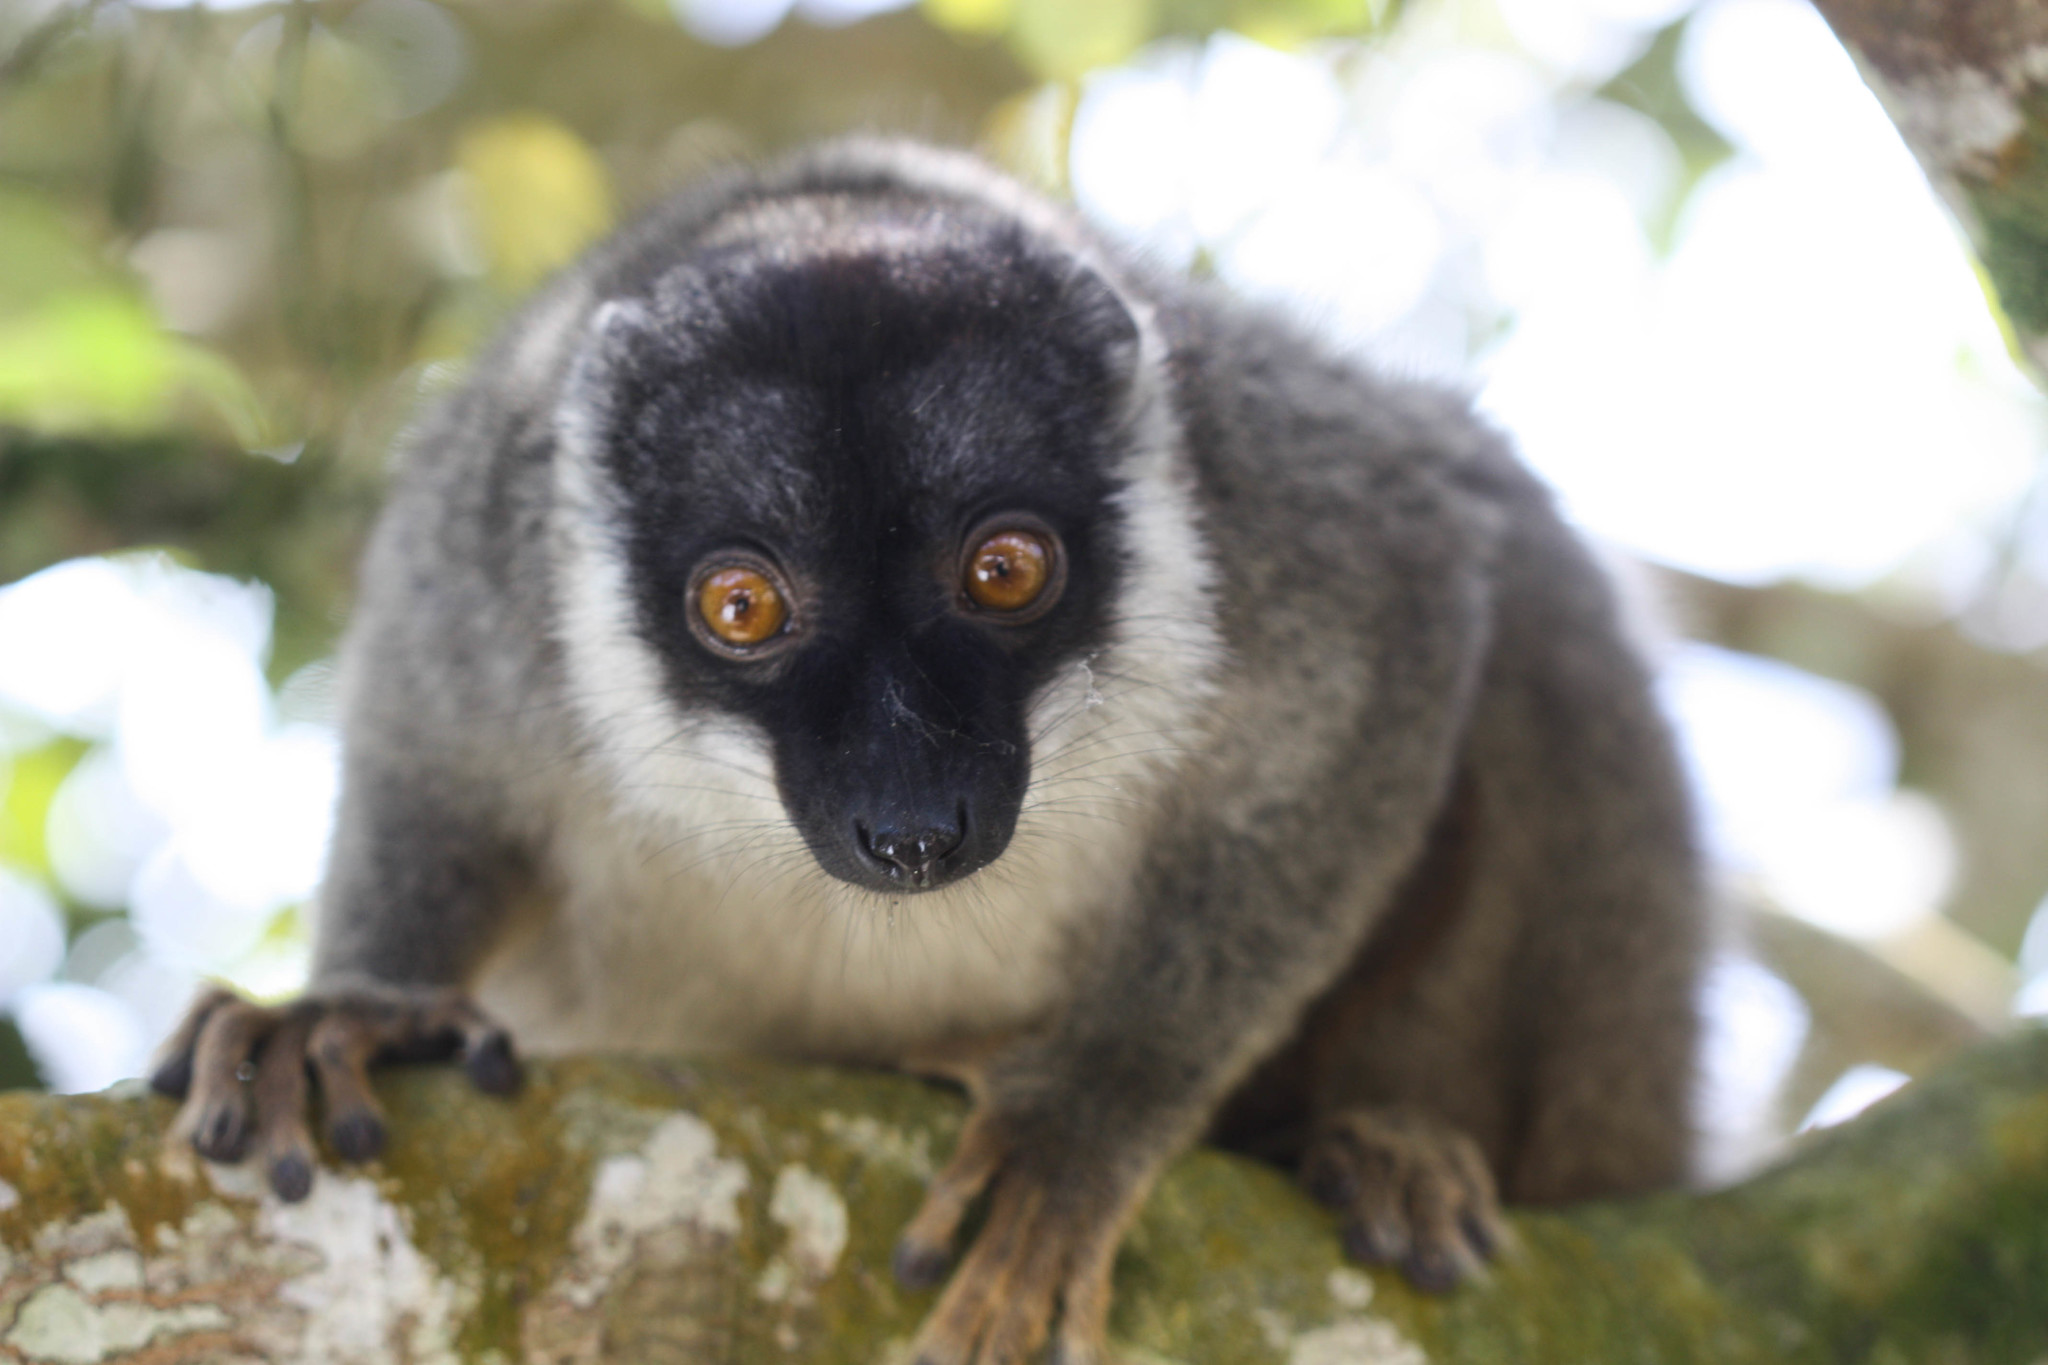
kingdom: Animalia
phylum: Chordata
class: Mammalia
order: Primates
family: Lemuridae
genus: Eulemur
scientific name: Eulemur fulvus
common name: Brown lemur
